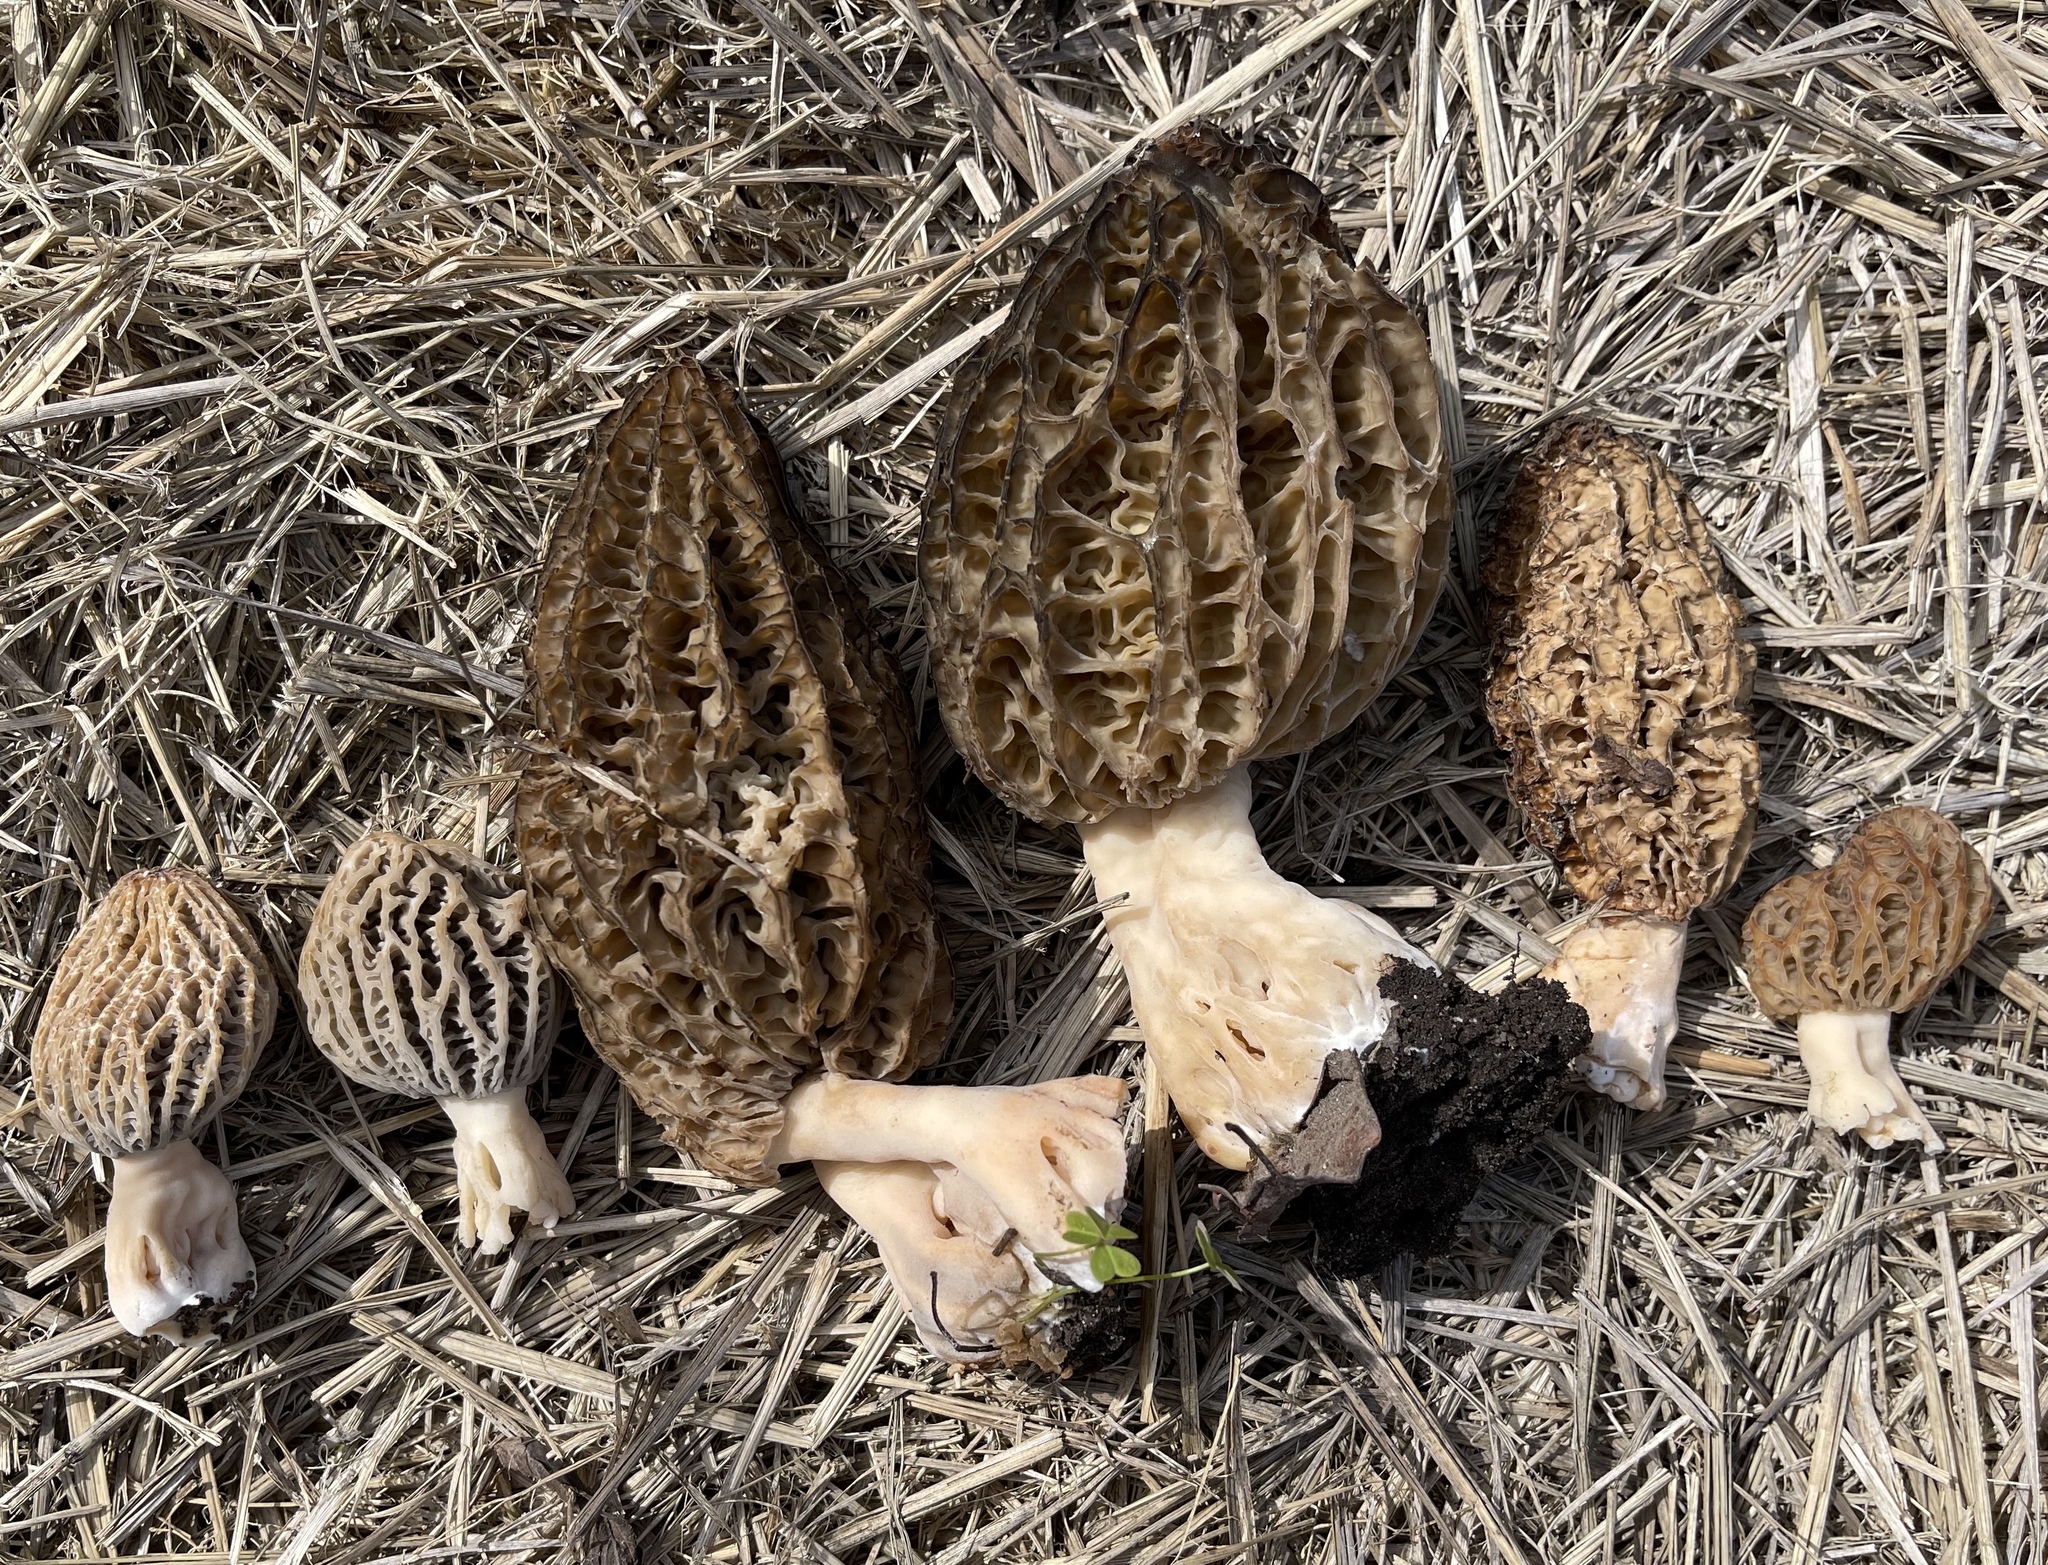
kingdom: Fungi
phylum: Ascomycota
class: Pezizomycetes
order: Pezizales
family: Morchellaceae
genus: Morchella
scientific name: Morchella importuna
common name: Landscaping black morel
